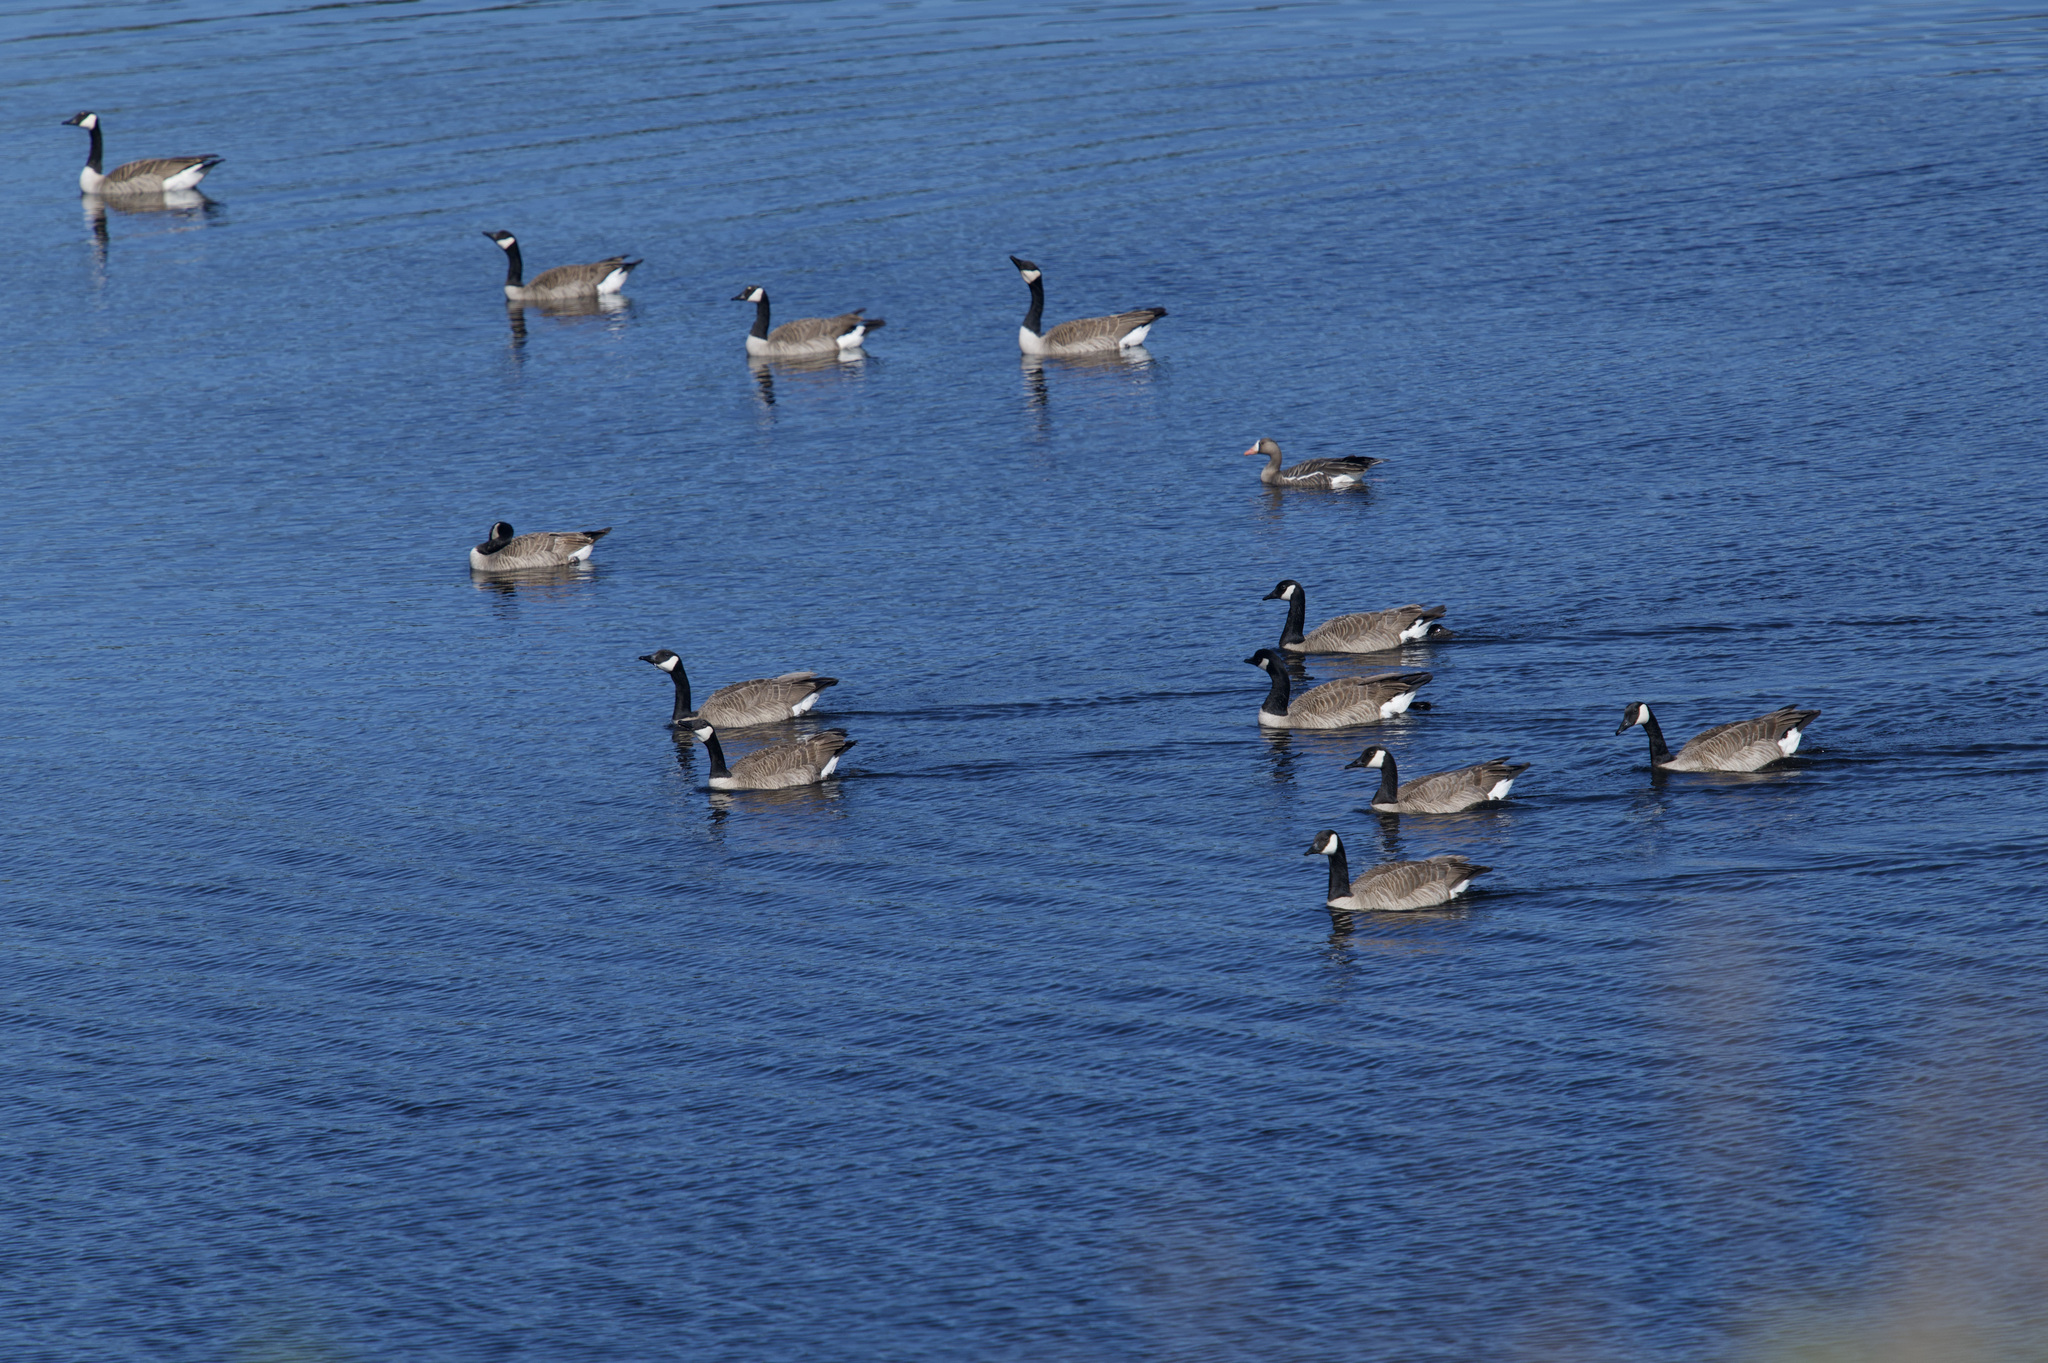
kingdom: Animalia
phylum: Chordata
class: Aves
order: Anseriformes
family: Anatidae
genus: Branta
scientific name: Branta canadensis
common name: Canada goose
